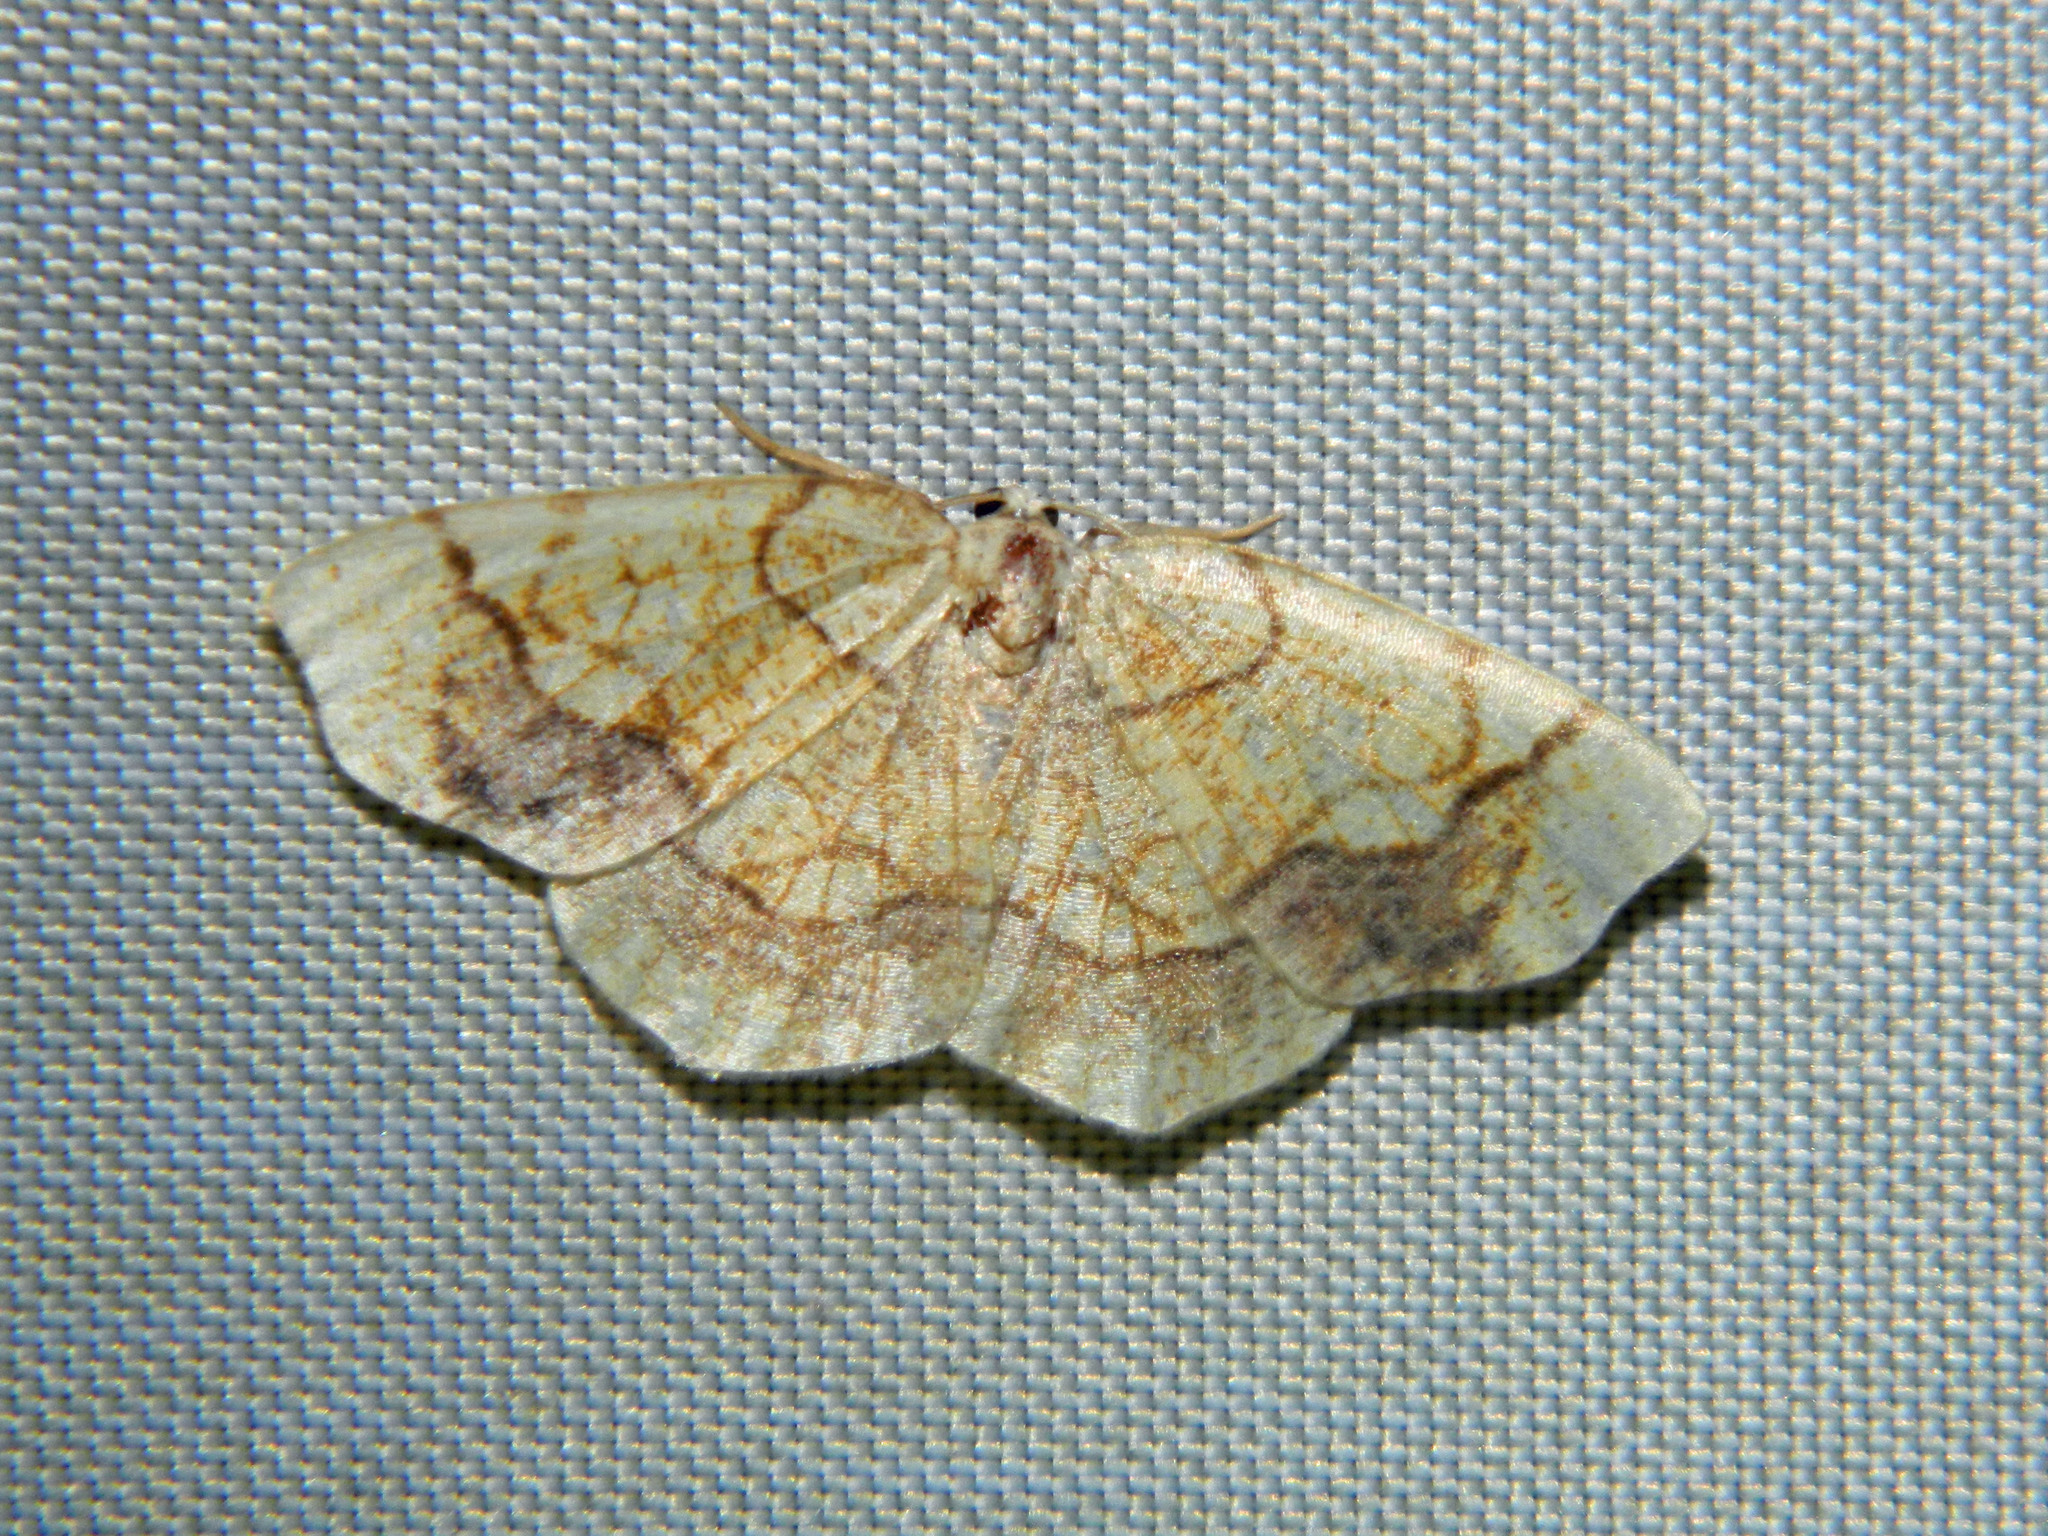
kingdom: Animalia
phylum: Arthropoda
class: Insecta
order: Lepidoptera
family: Geometridae
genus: Nematocampa
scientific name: Nematocampa resistaria
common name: Horned spanworm moth
